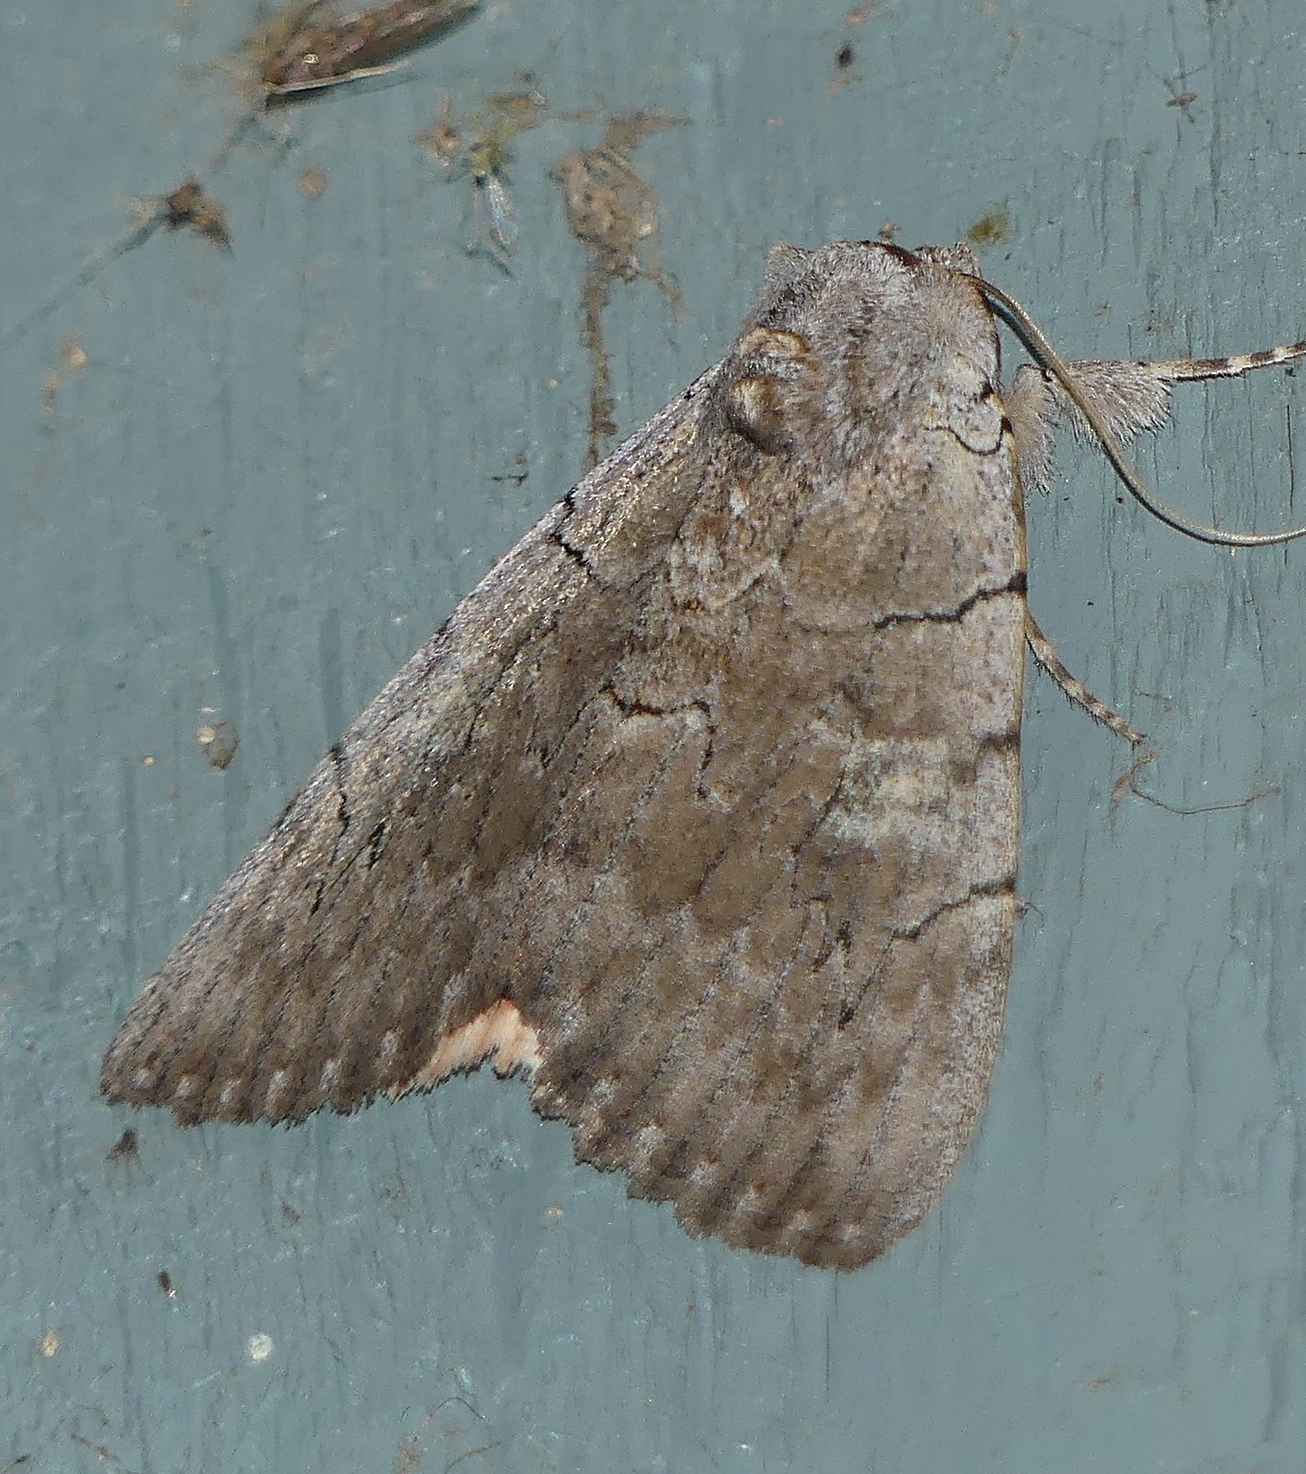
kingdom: Animalia
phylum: Arthropoda
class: Insecta
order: Lepidoptera
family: Erebidae
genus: Catocala
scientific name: Catocala concumbens
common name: Pink underwing
